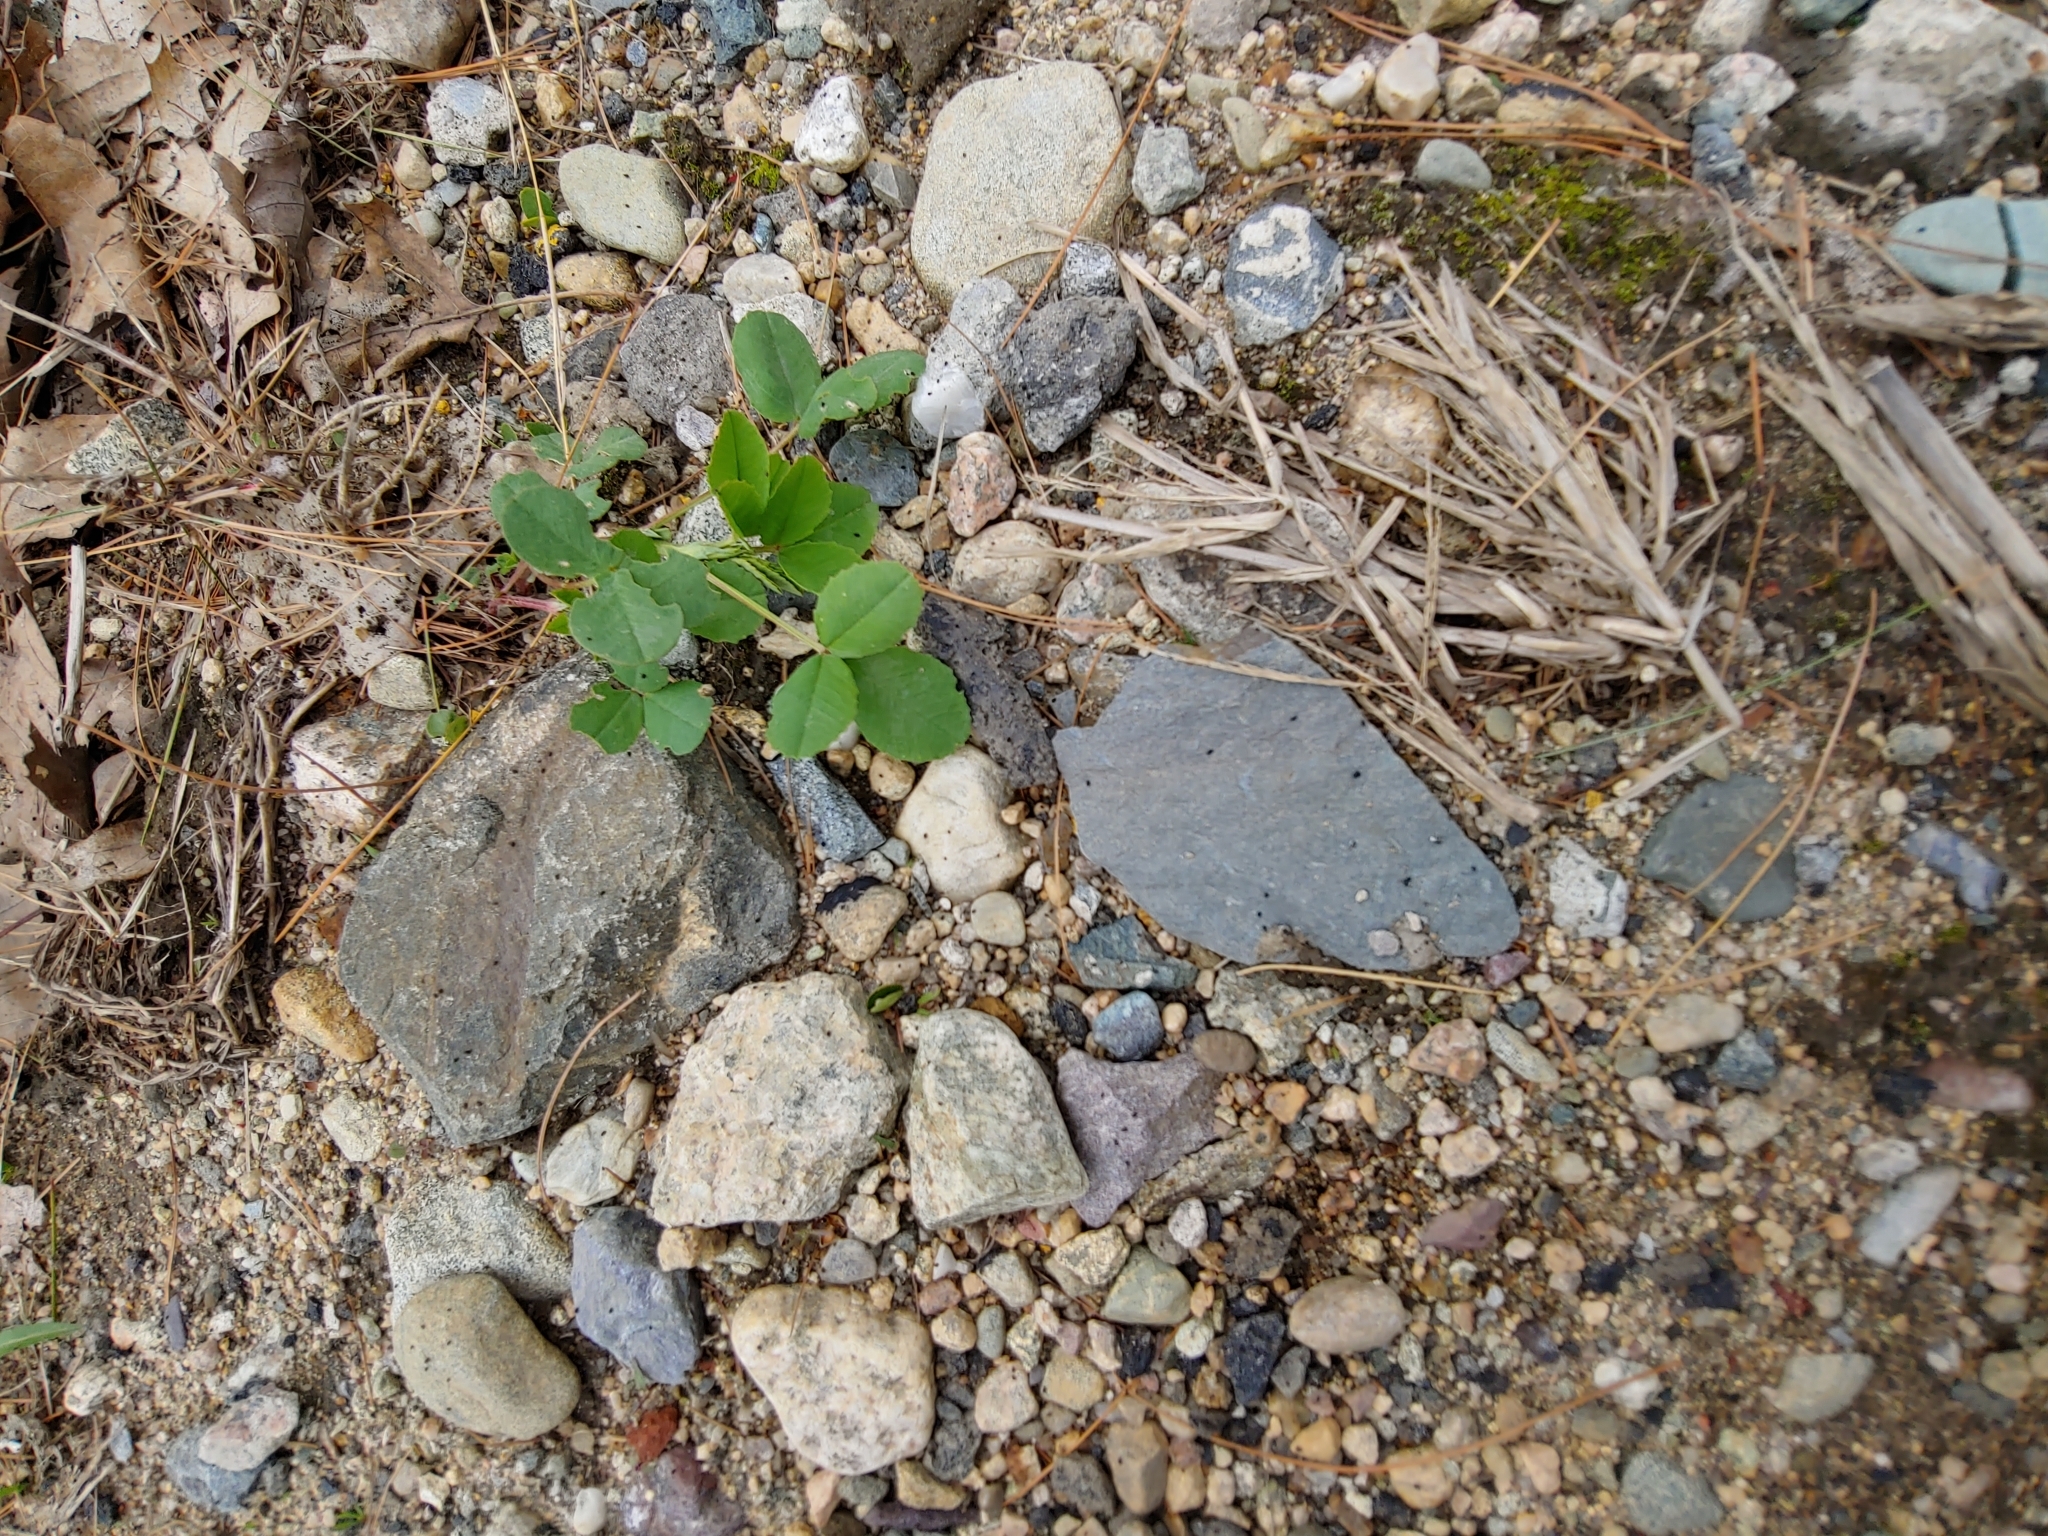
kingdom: Plantae
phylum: Tracheophyta
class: Magnoliopsida
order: Fabales
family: Fabaceae
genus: Melilotus
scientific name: Melilotus
